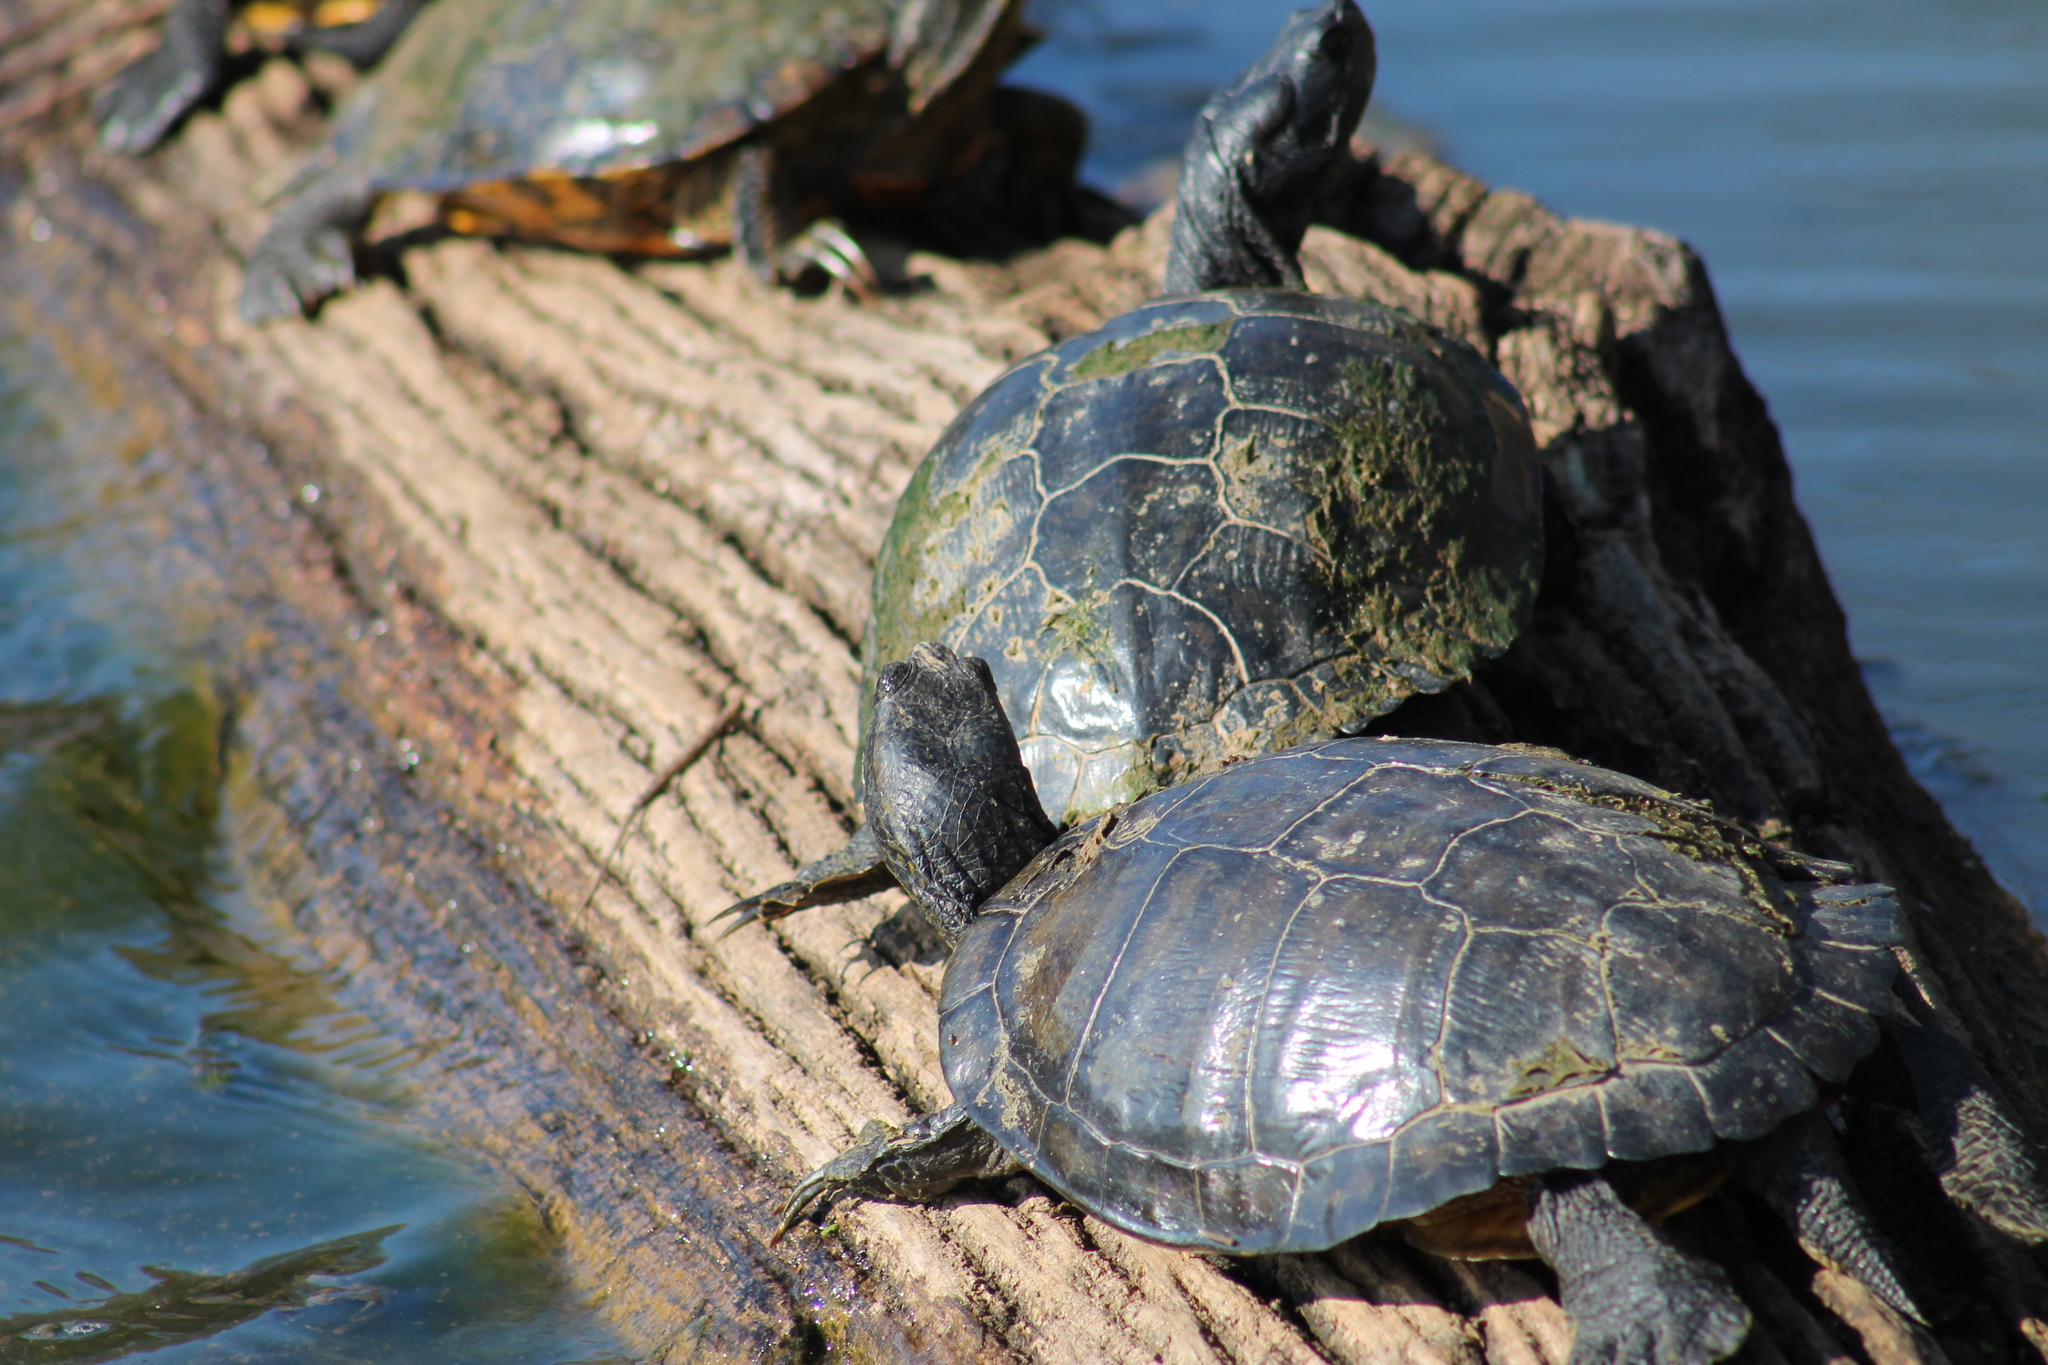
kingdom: Animalia
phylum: Chordata
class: Testudines
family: Emydidae
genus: Trachemys
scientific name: Trachemys scripta
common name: Slider
